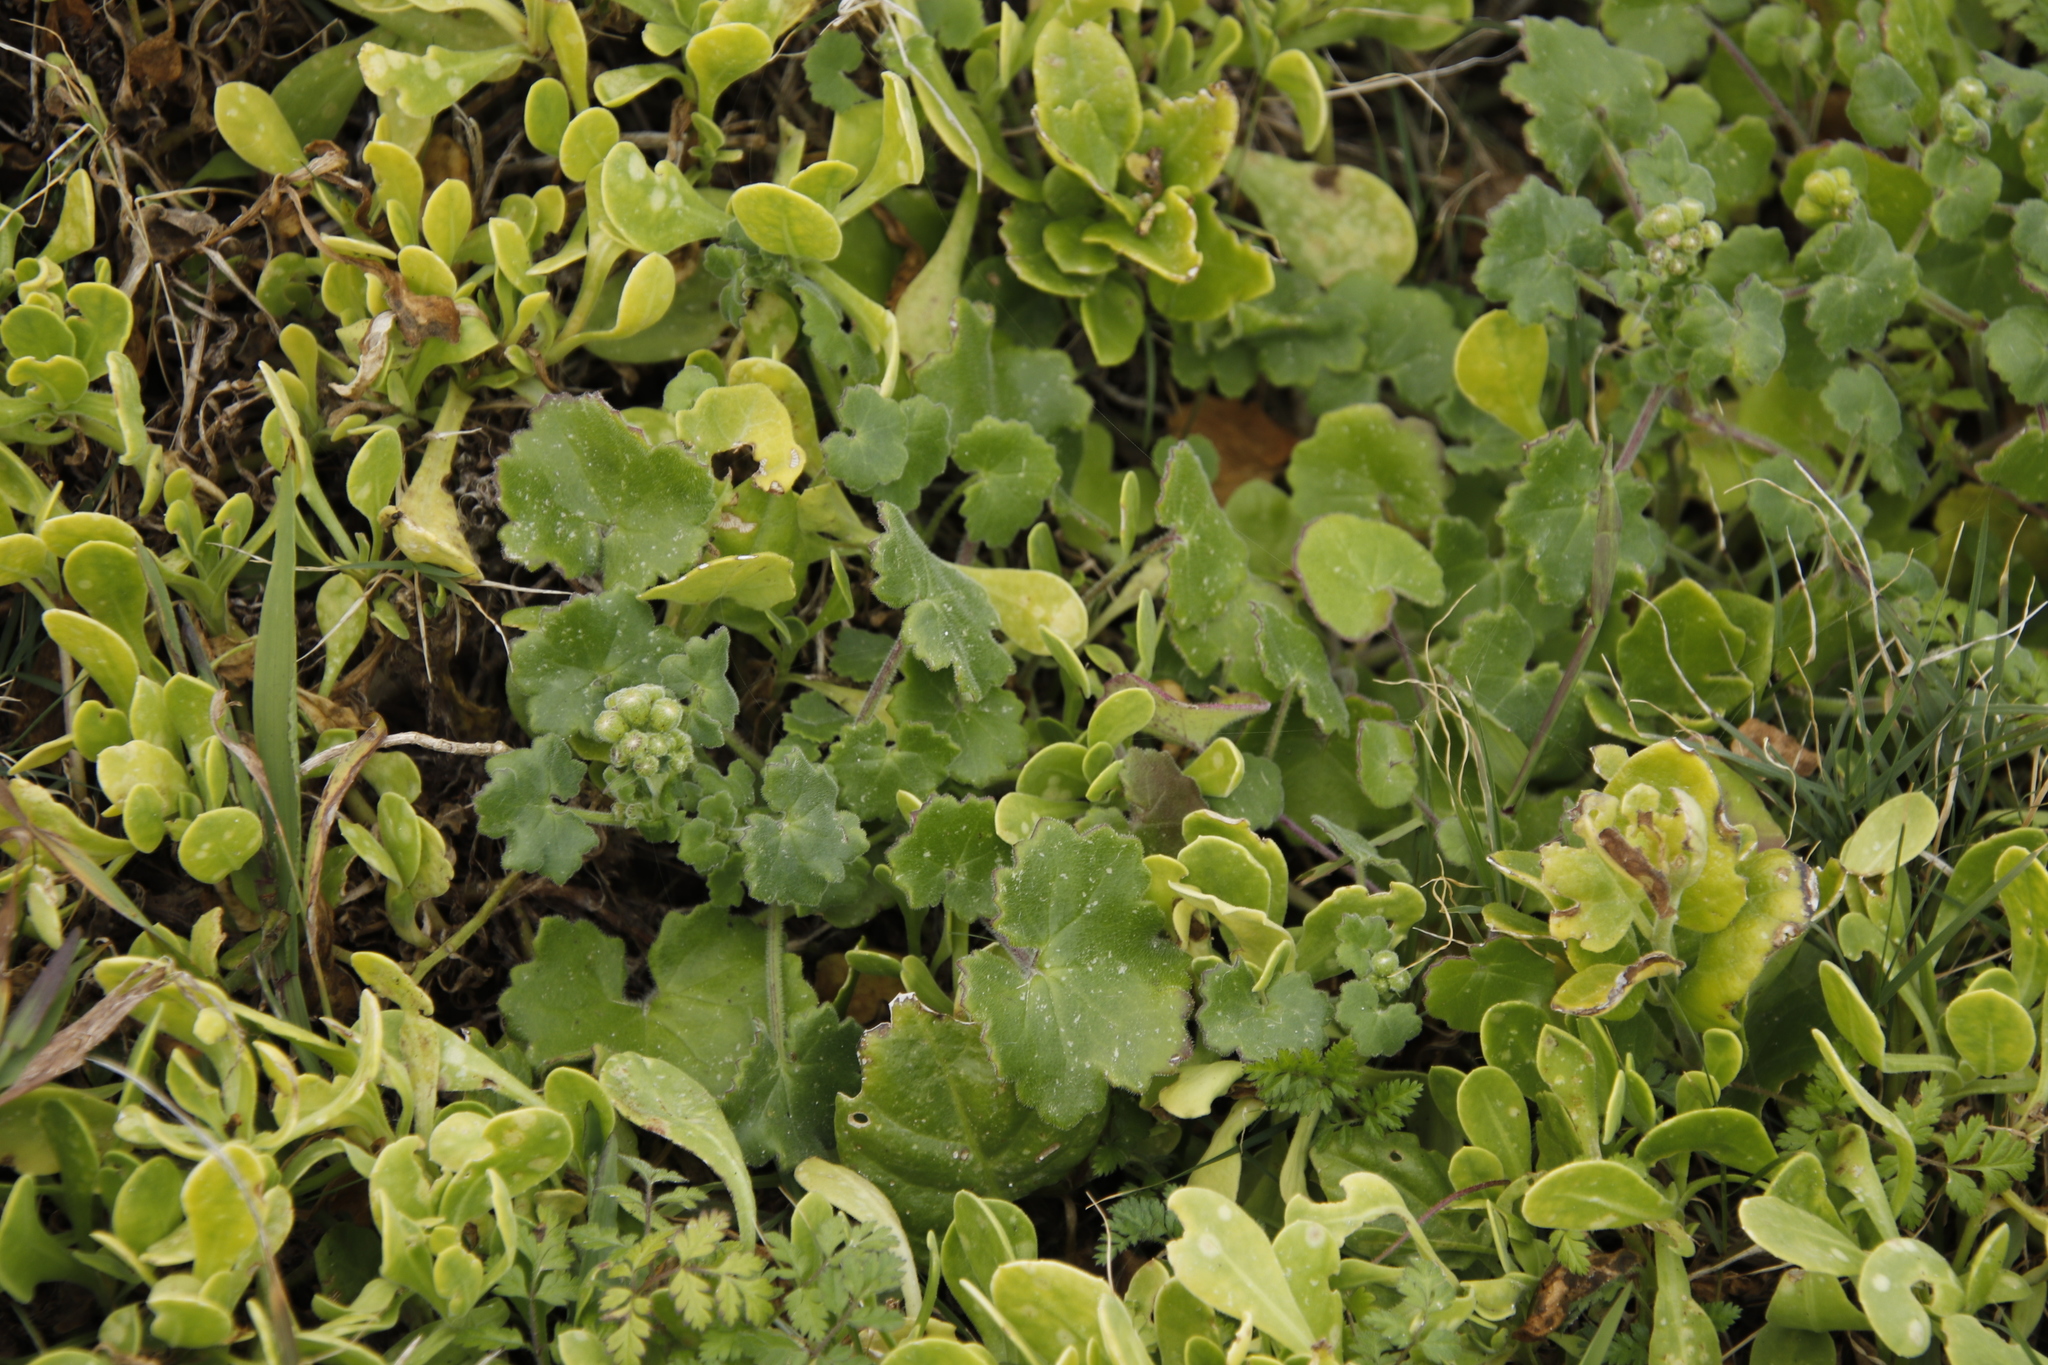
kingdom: Plantae
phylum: Tracheophyta
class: Magnoliopsida
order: Asterales
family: Asteraceae
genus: Cineraria
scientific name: Cineraria geifolia
